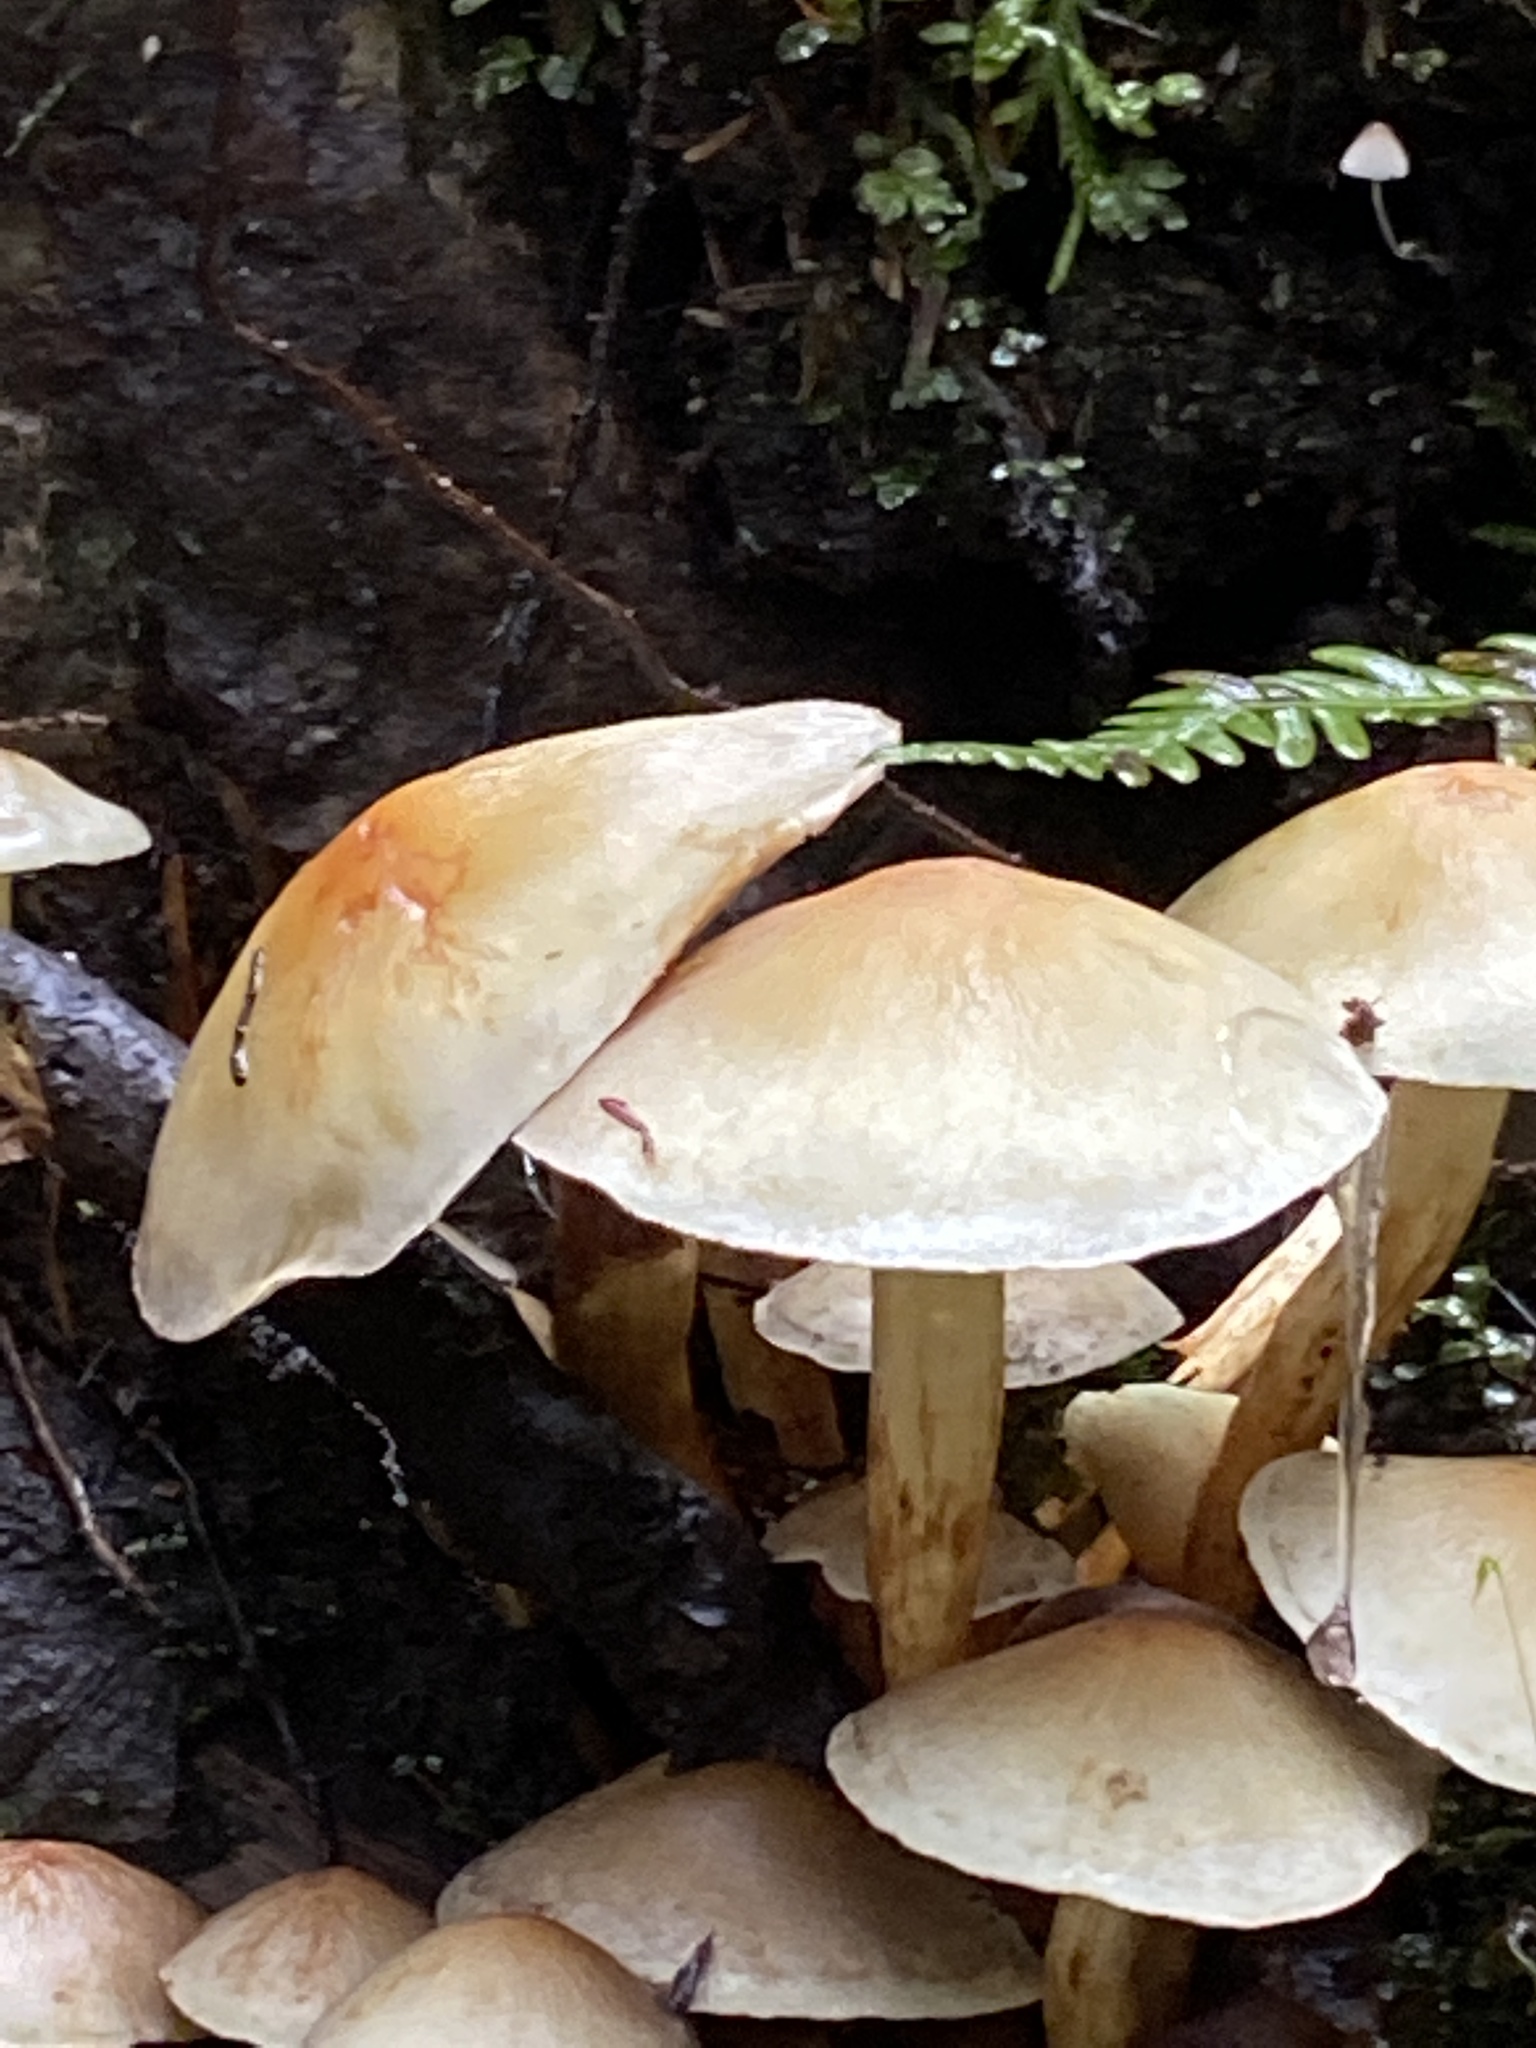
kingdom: Fungi
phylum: Basidiomycota
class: Agaricomycetes
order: Agaricales
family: Strophariaceae
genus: Hypholoma
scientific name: Hypholoma fasciculare
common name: Sulphur tuft
